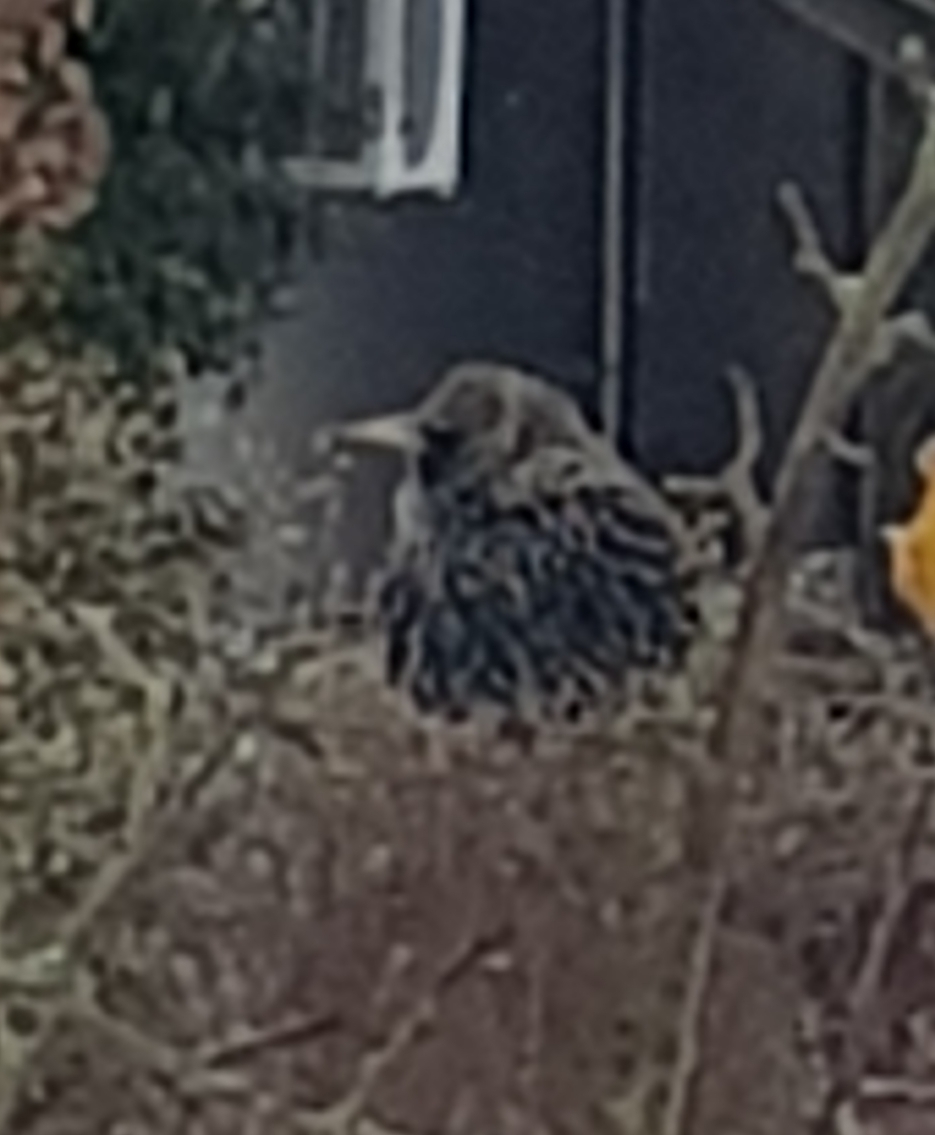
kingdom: Animalia
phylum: Chordata
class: Aves
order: Passeriformes
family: Sturnidae
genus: Sturnus
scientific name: Sturnus vulgaris
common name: Common starling
